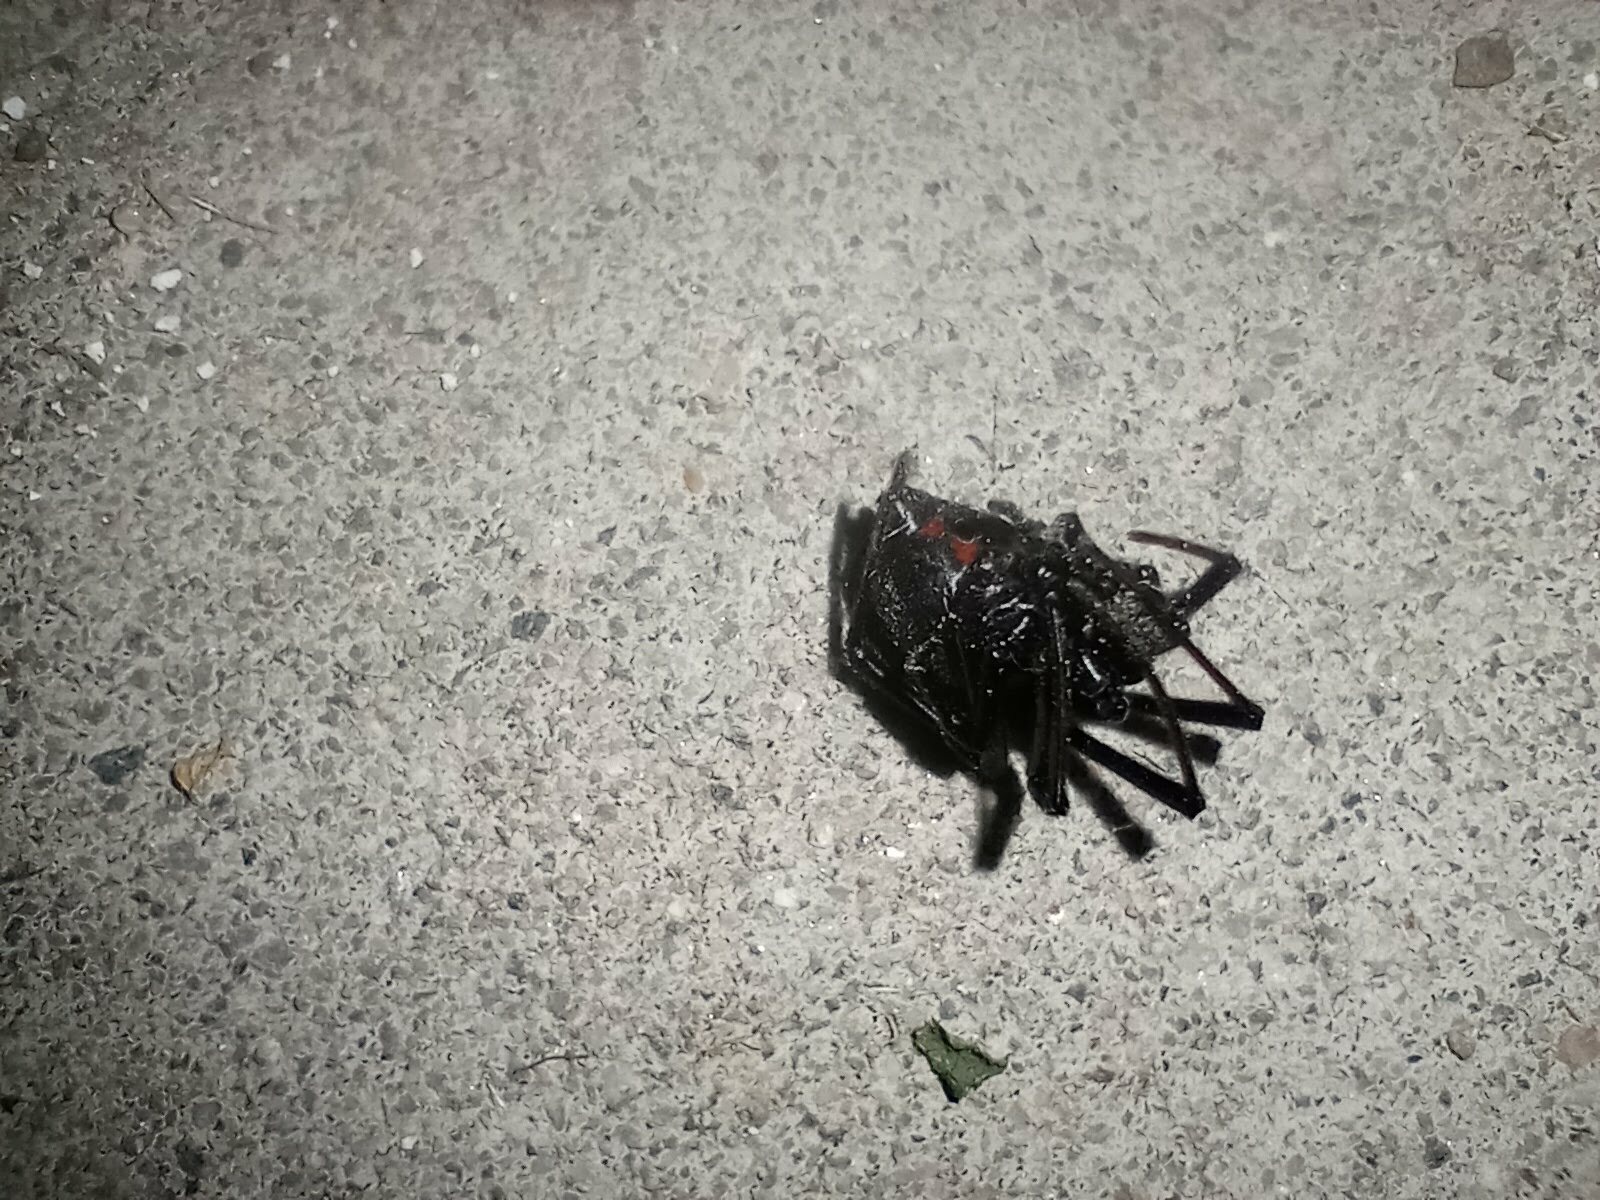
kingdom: Animalia
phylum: Arthropoda
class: Arachnida
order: Araneae
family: Theridiidae
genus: Latrodectus
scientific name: Latrodectus hesperus
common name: Western black widow
